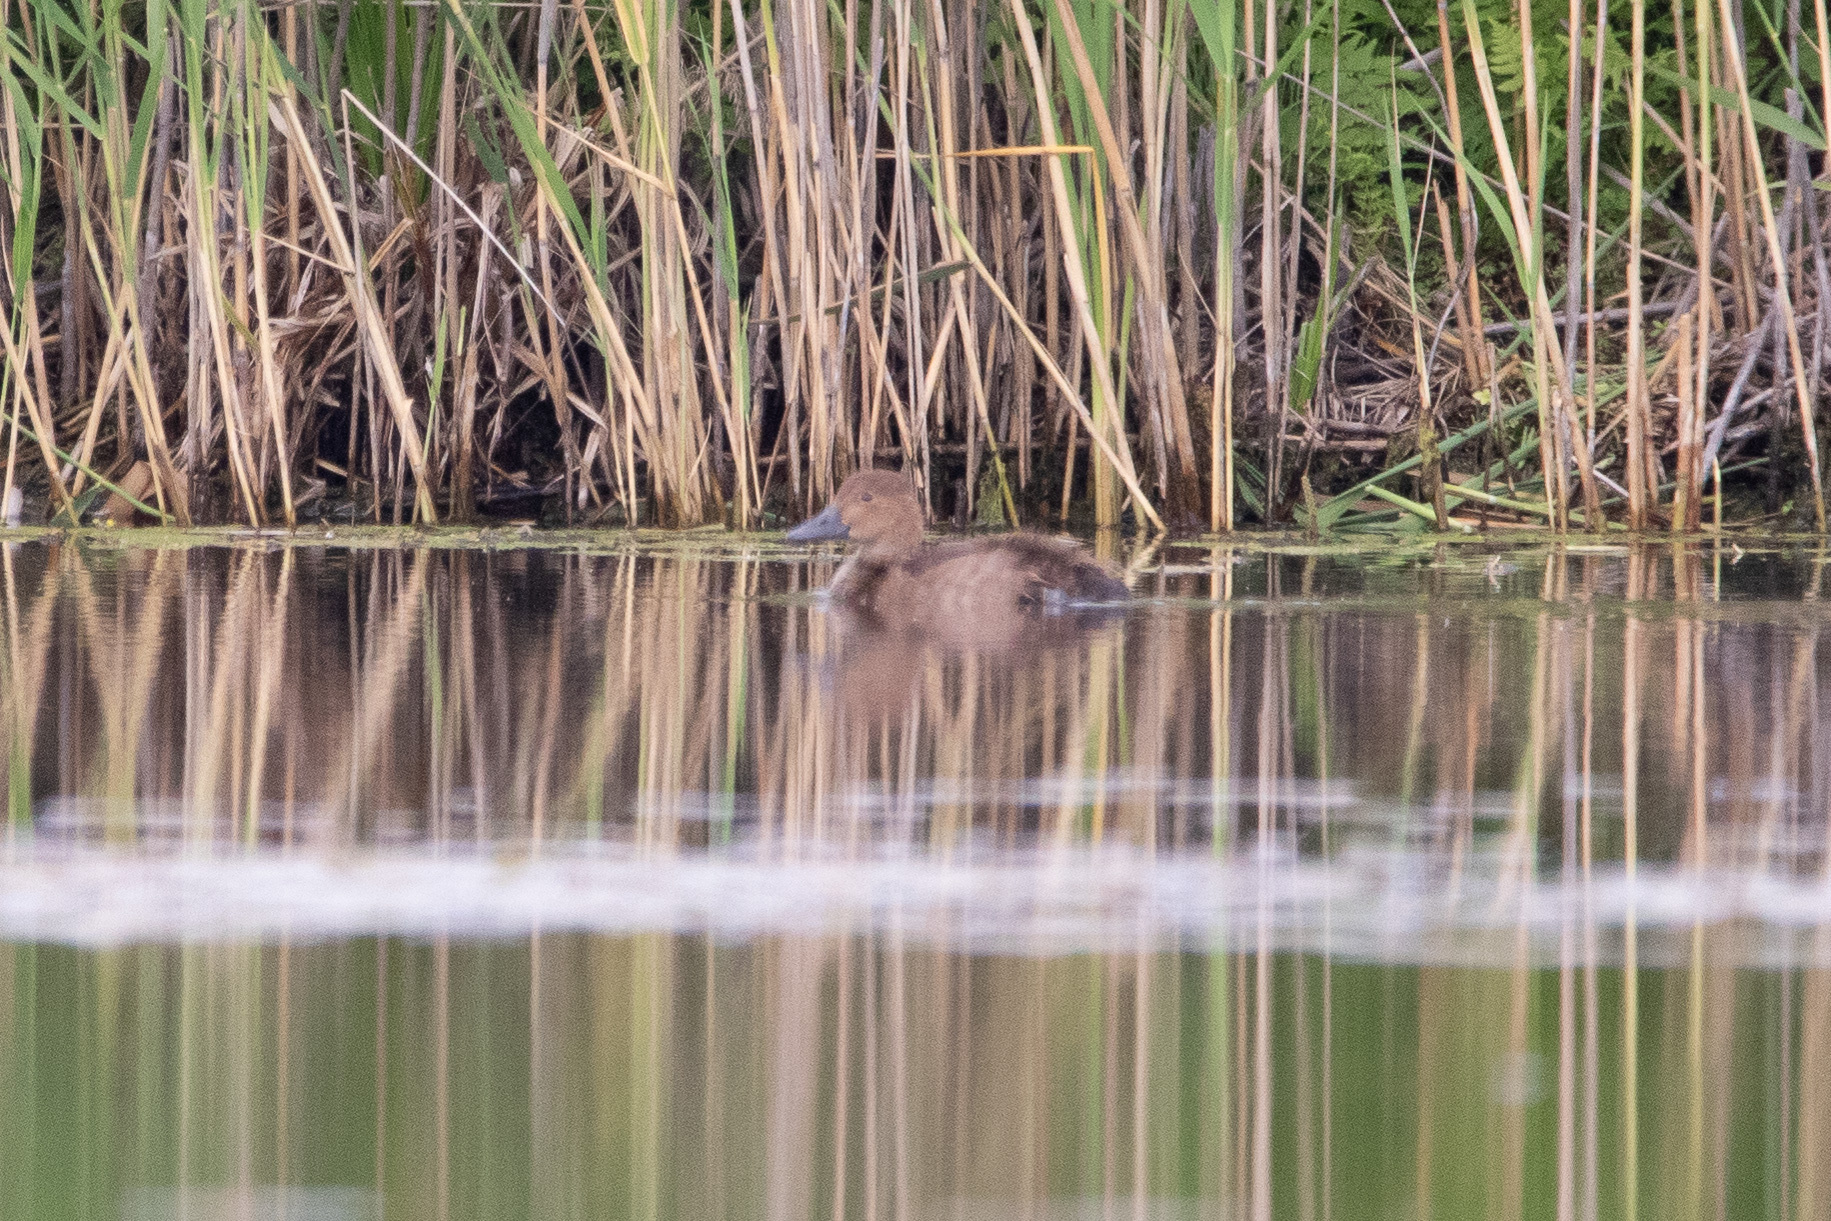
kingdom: Animalia
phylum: Chordata
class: Aves
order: Anseriformes
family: Anatidae
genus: Aythya
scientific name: Aythya ferina
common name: Common pochard
